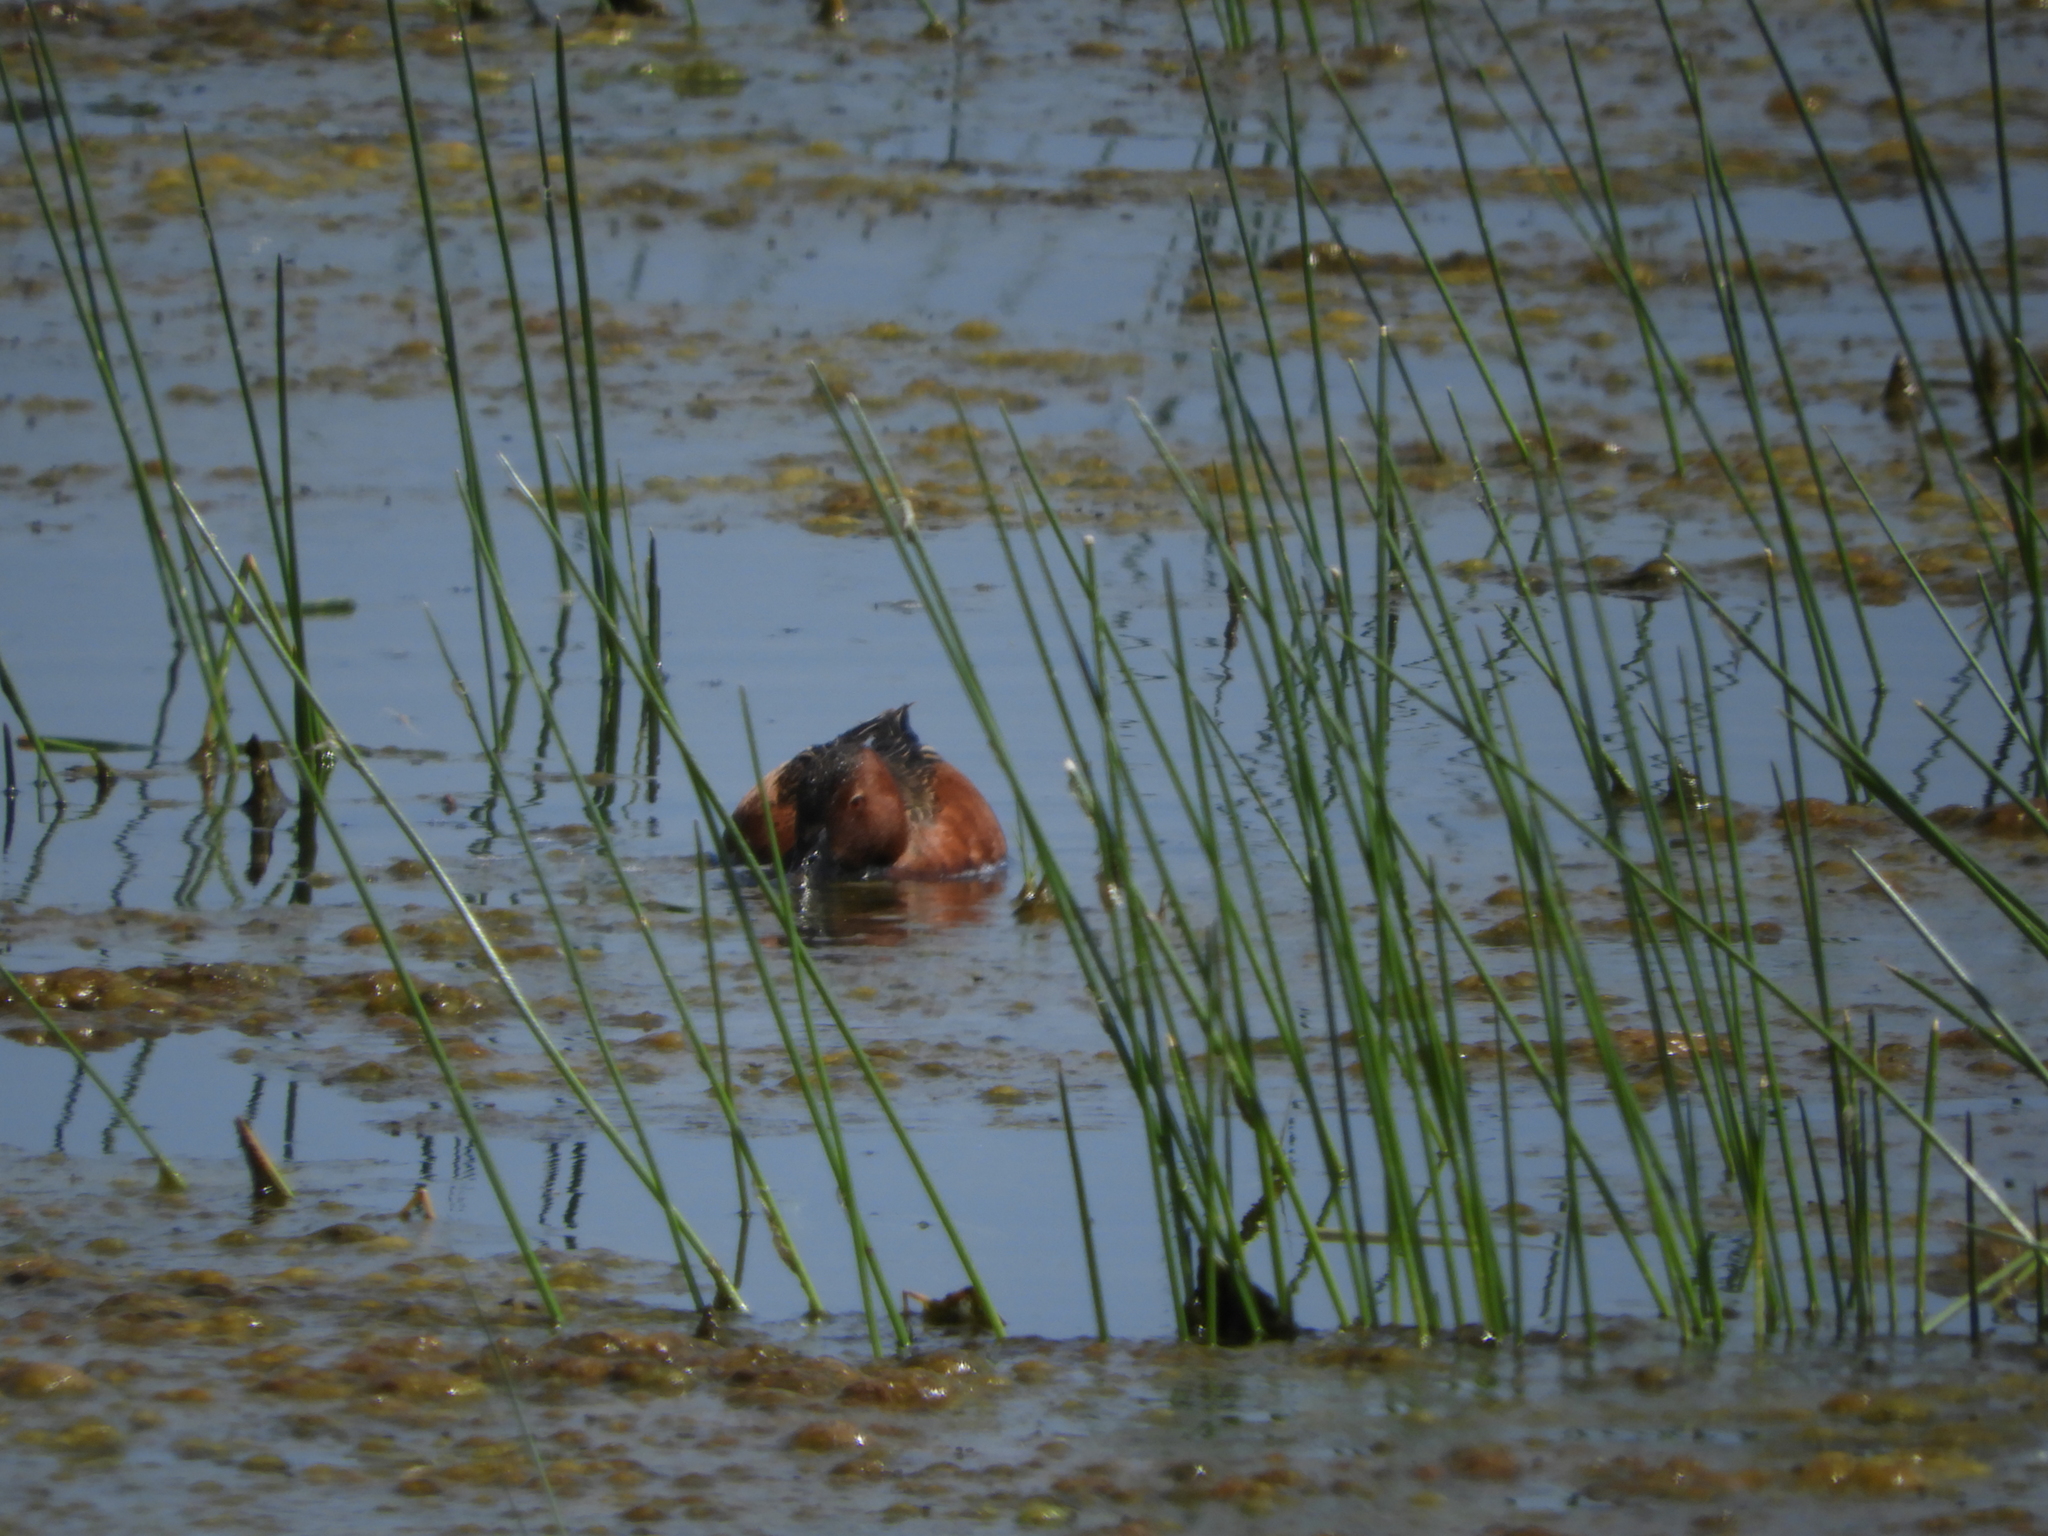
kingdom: Animalia
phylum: Chordata
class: Aves
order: Anseriformes
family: Anatidae
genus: Spatula
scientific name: Spatula cyanoptera
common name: Cinnamon teal
